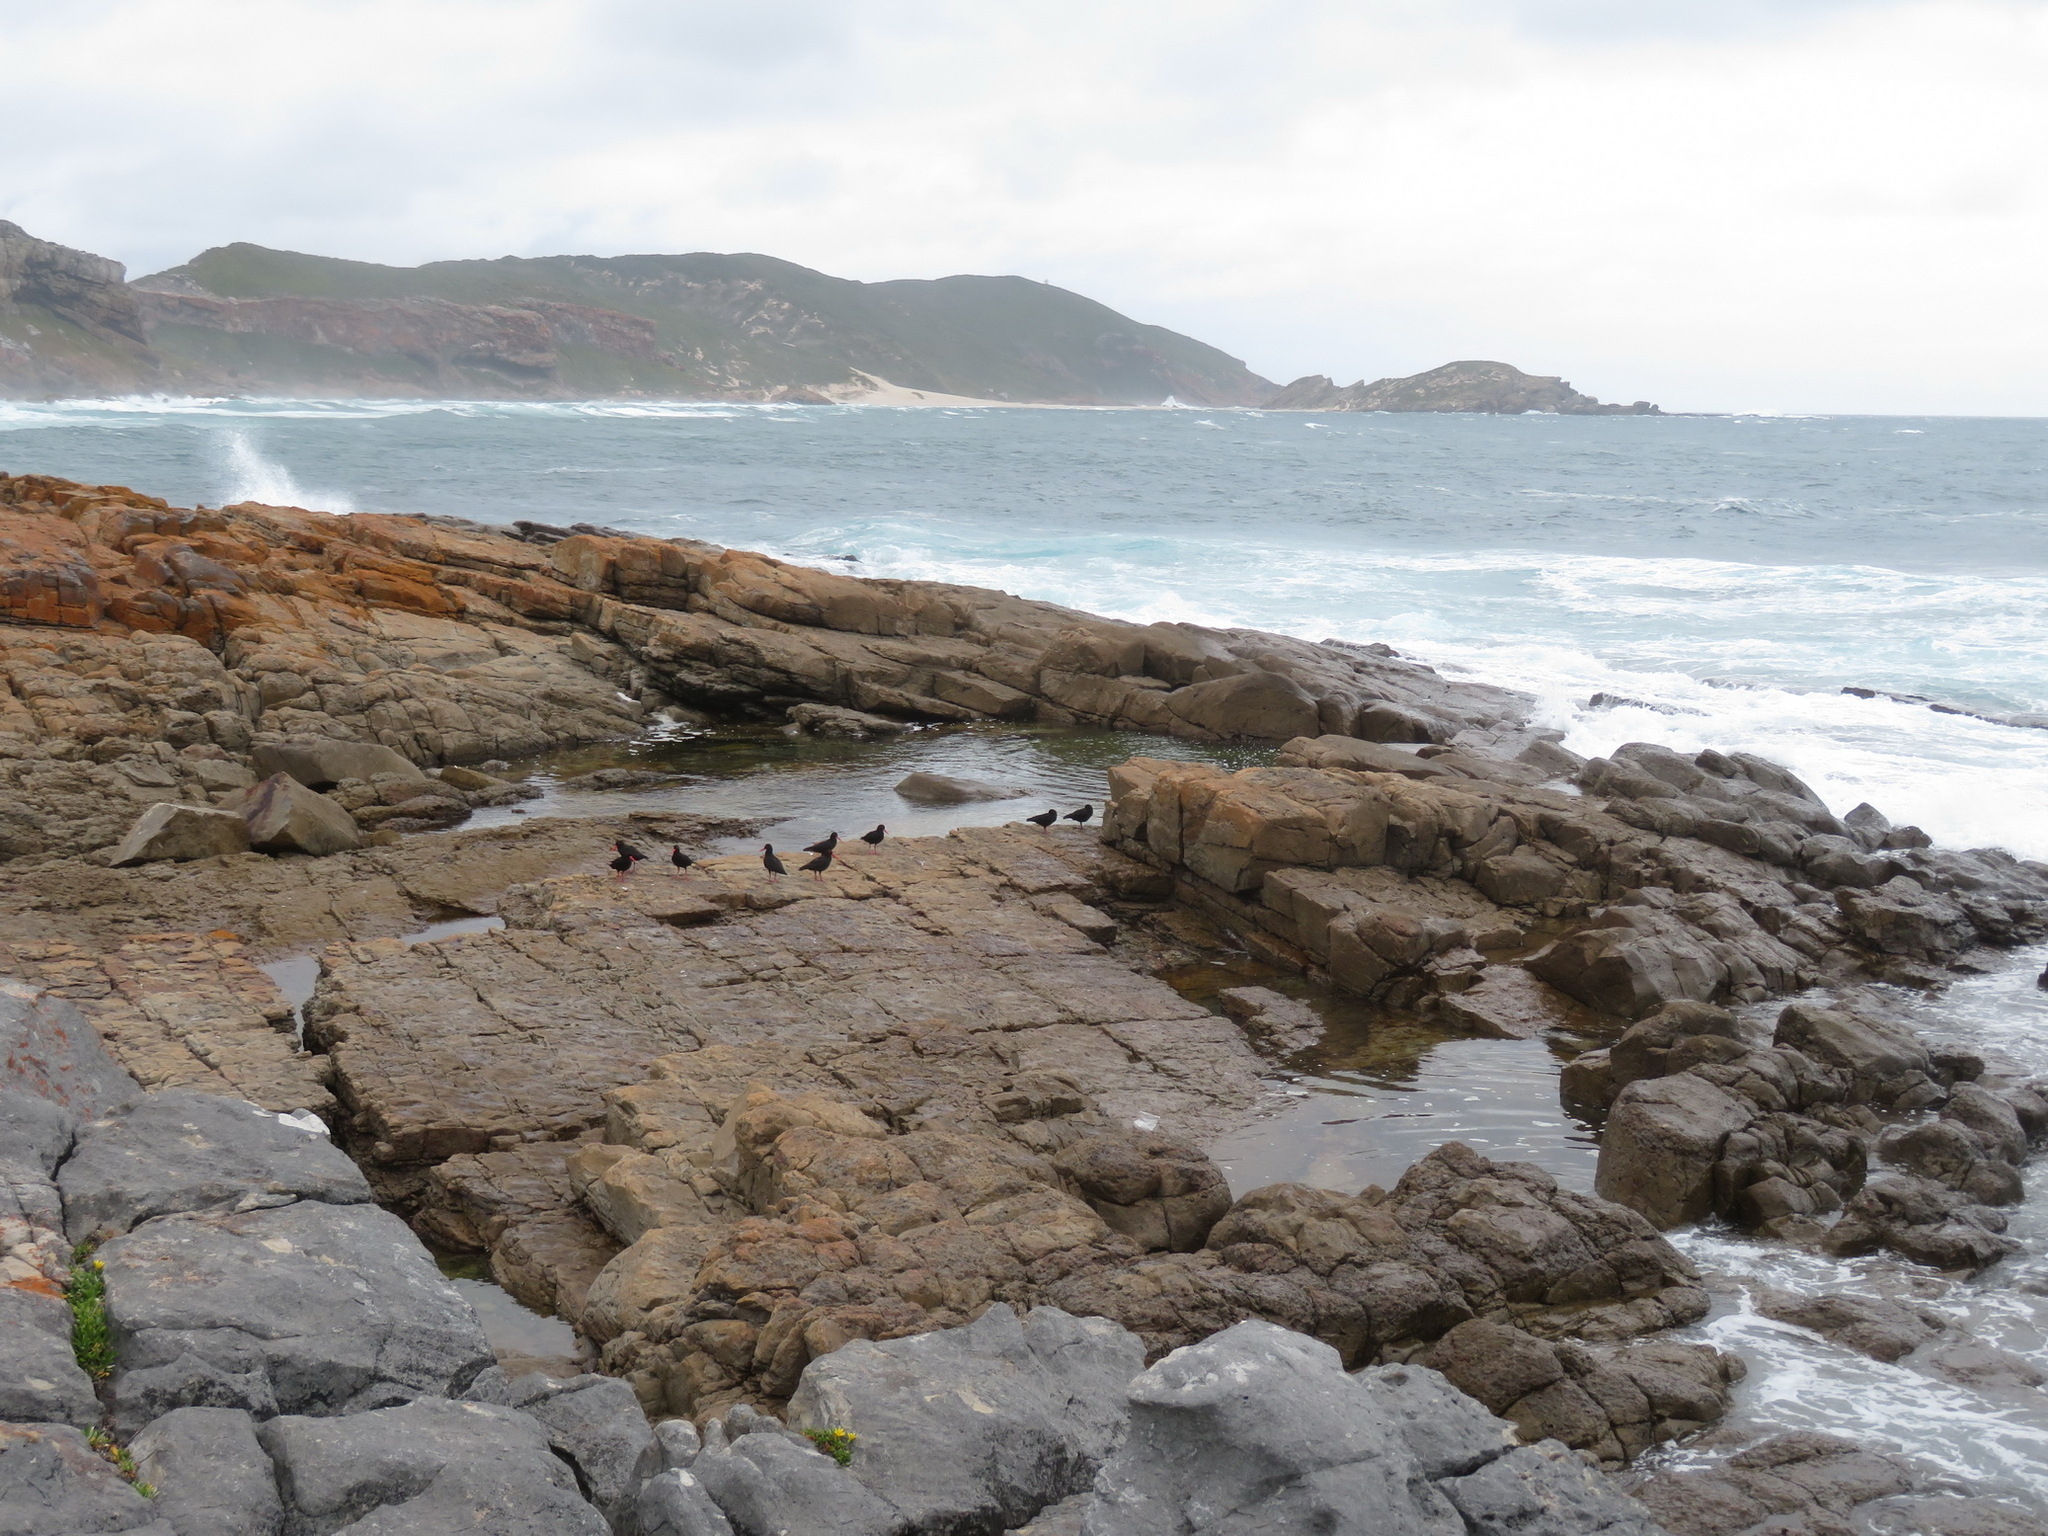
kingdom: Animalia
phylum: Chordata
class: Aves
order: Charadriiformes
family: Haematopodidae
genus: Haematopus
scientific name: Haematopus moquini
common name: African oystercatcher
